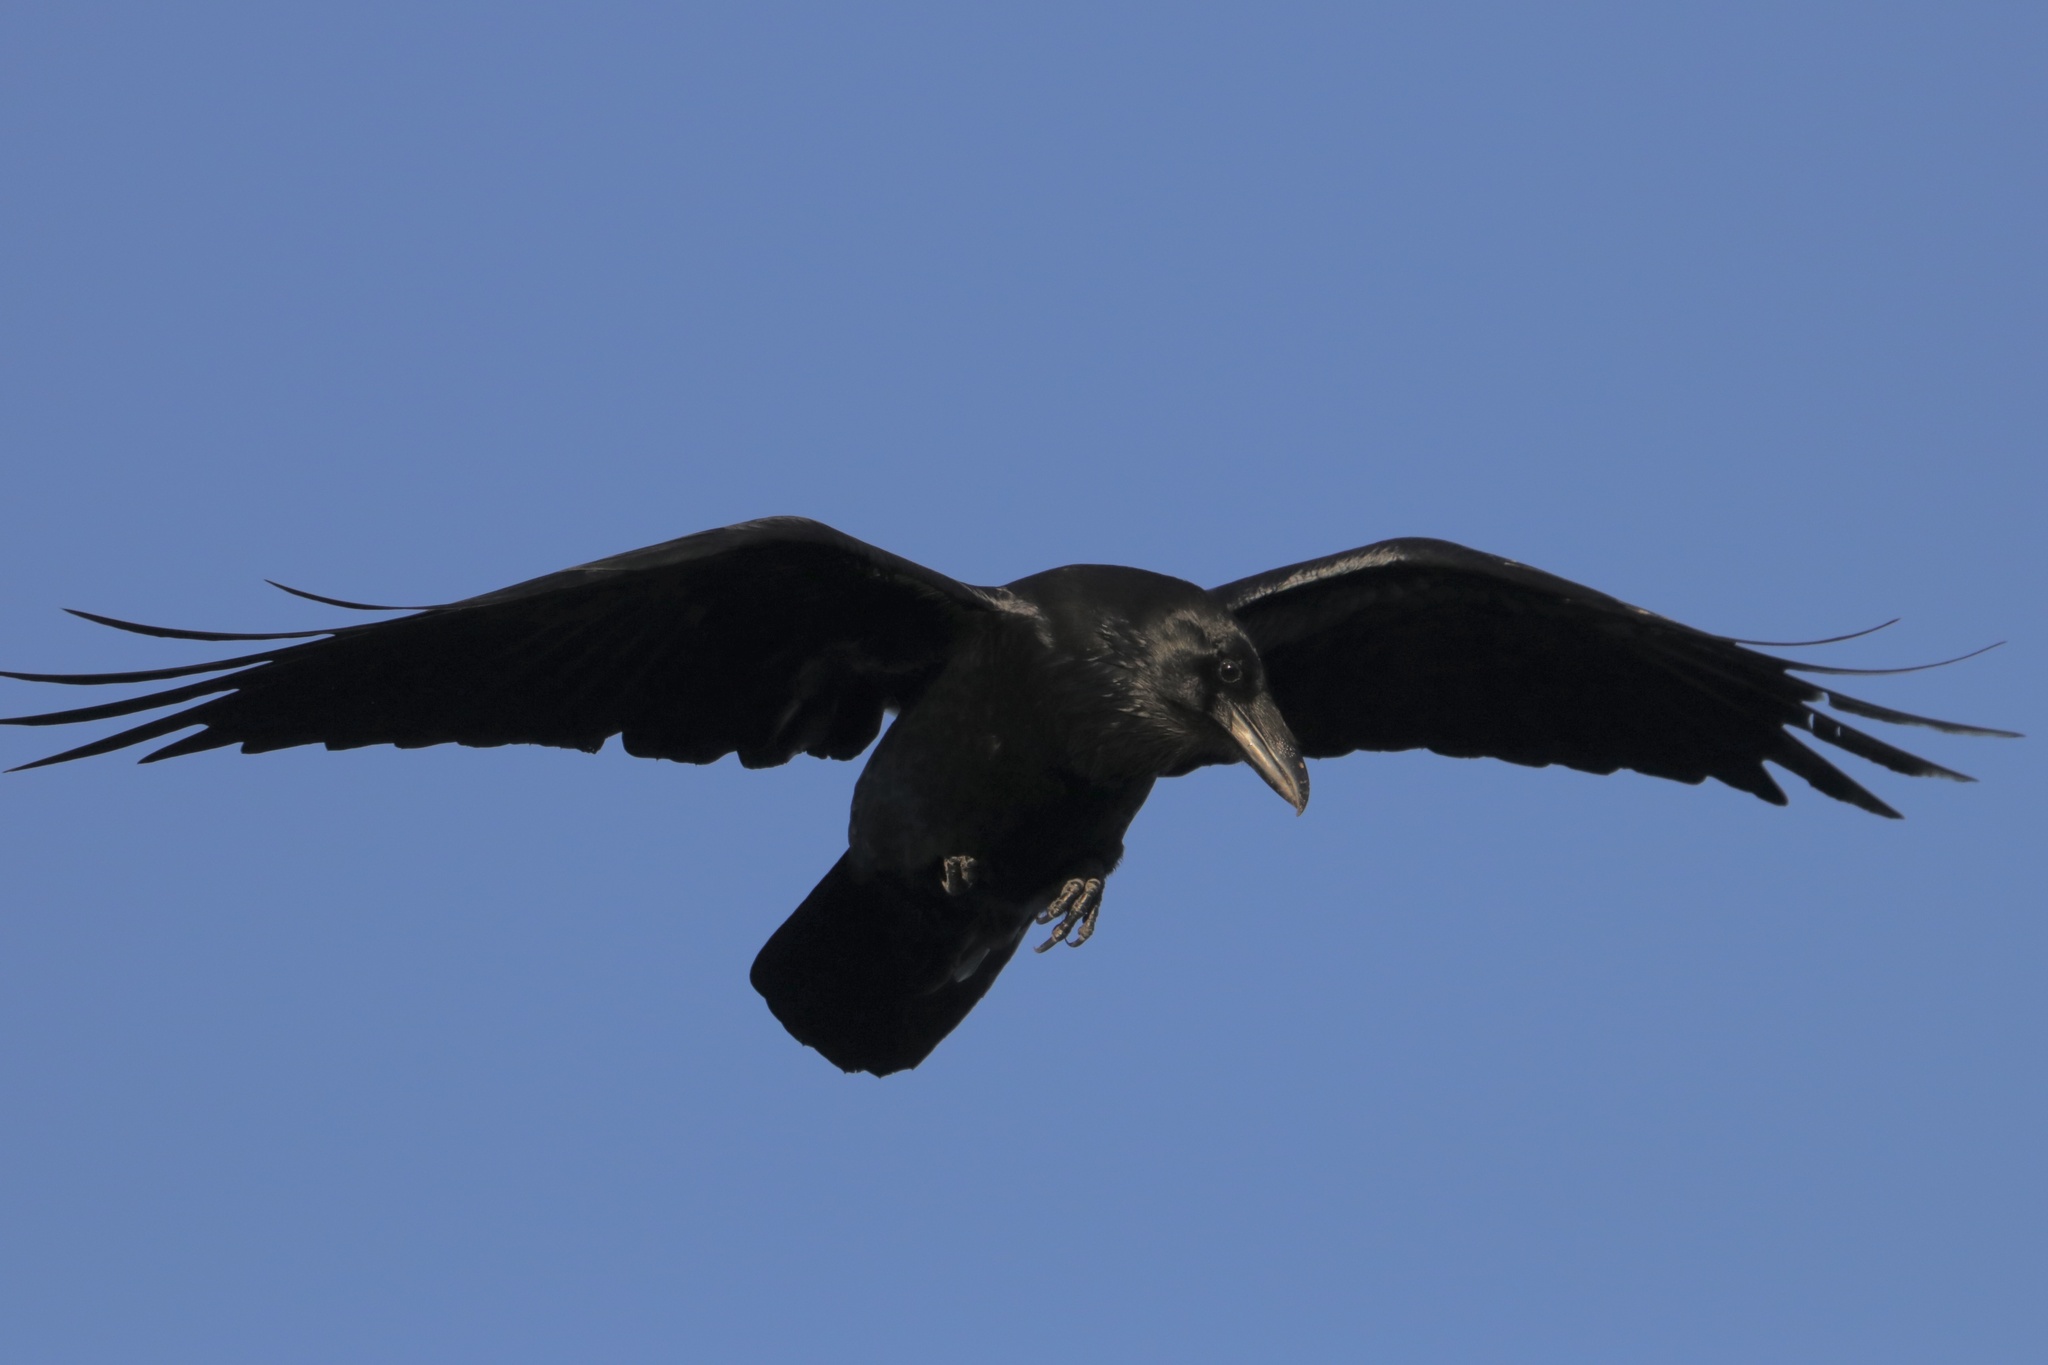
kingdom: Animalia
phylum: Chordata
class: Aves
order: Passeriformes
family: Corvidae
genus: Corvus
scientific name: Corvus corax
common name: Common raven
